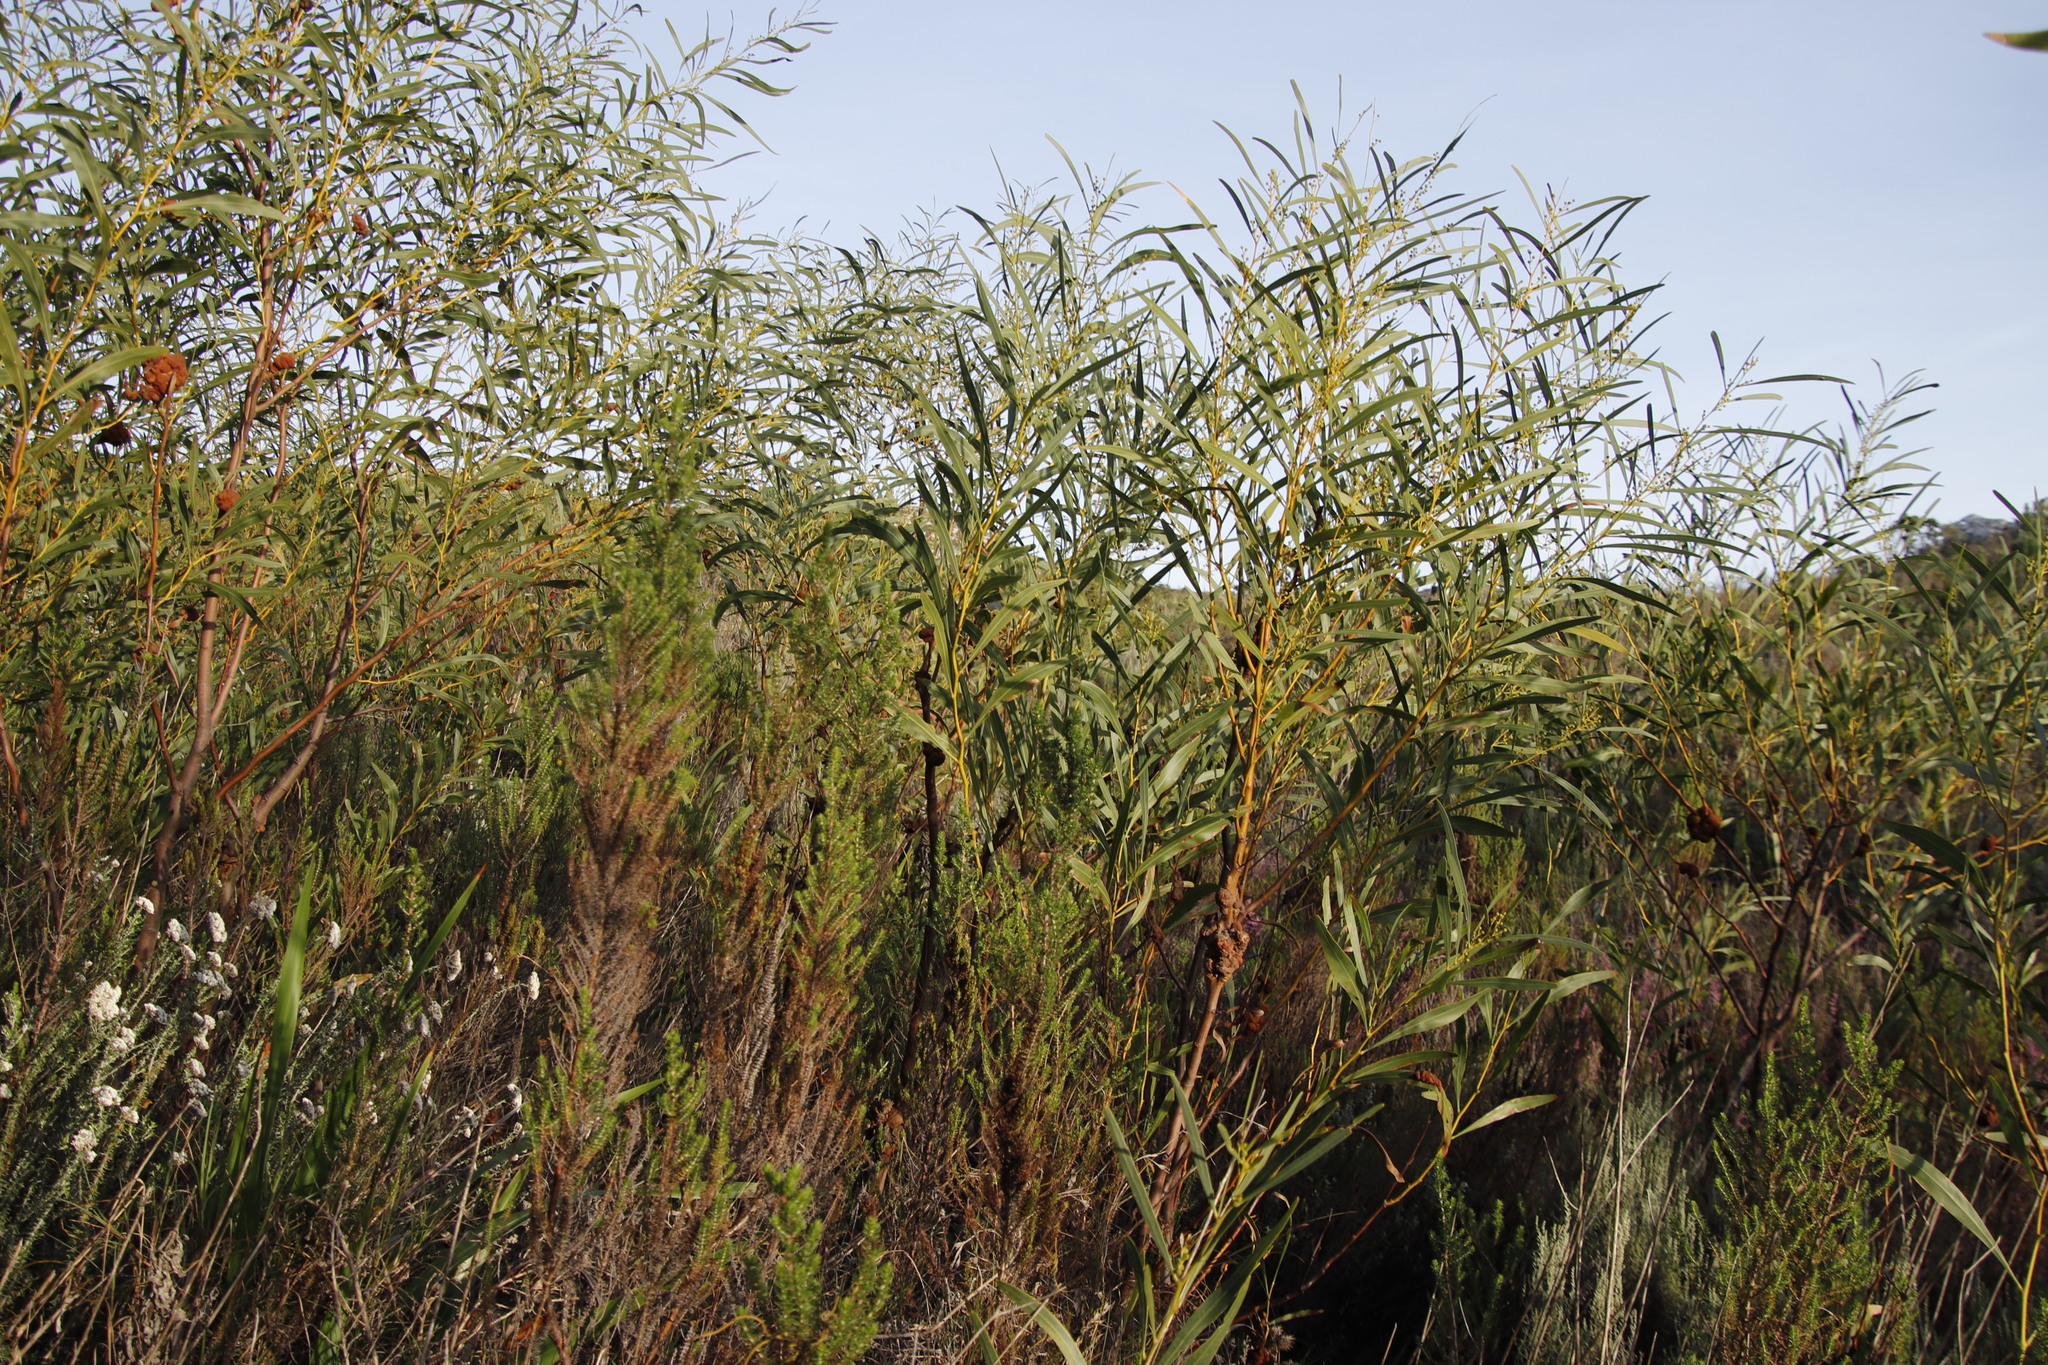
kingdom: Plantae
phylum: Tracheophyta
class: Magnoliopsida
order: Gentianales
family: Rubiaceae
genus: Anthospermum
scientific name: Anthospermum aethiopicum
